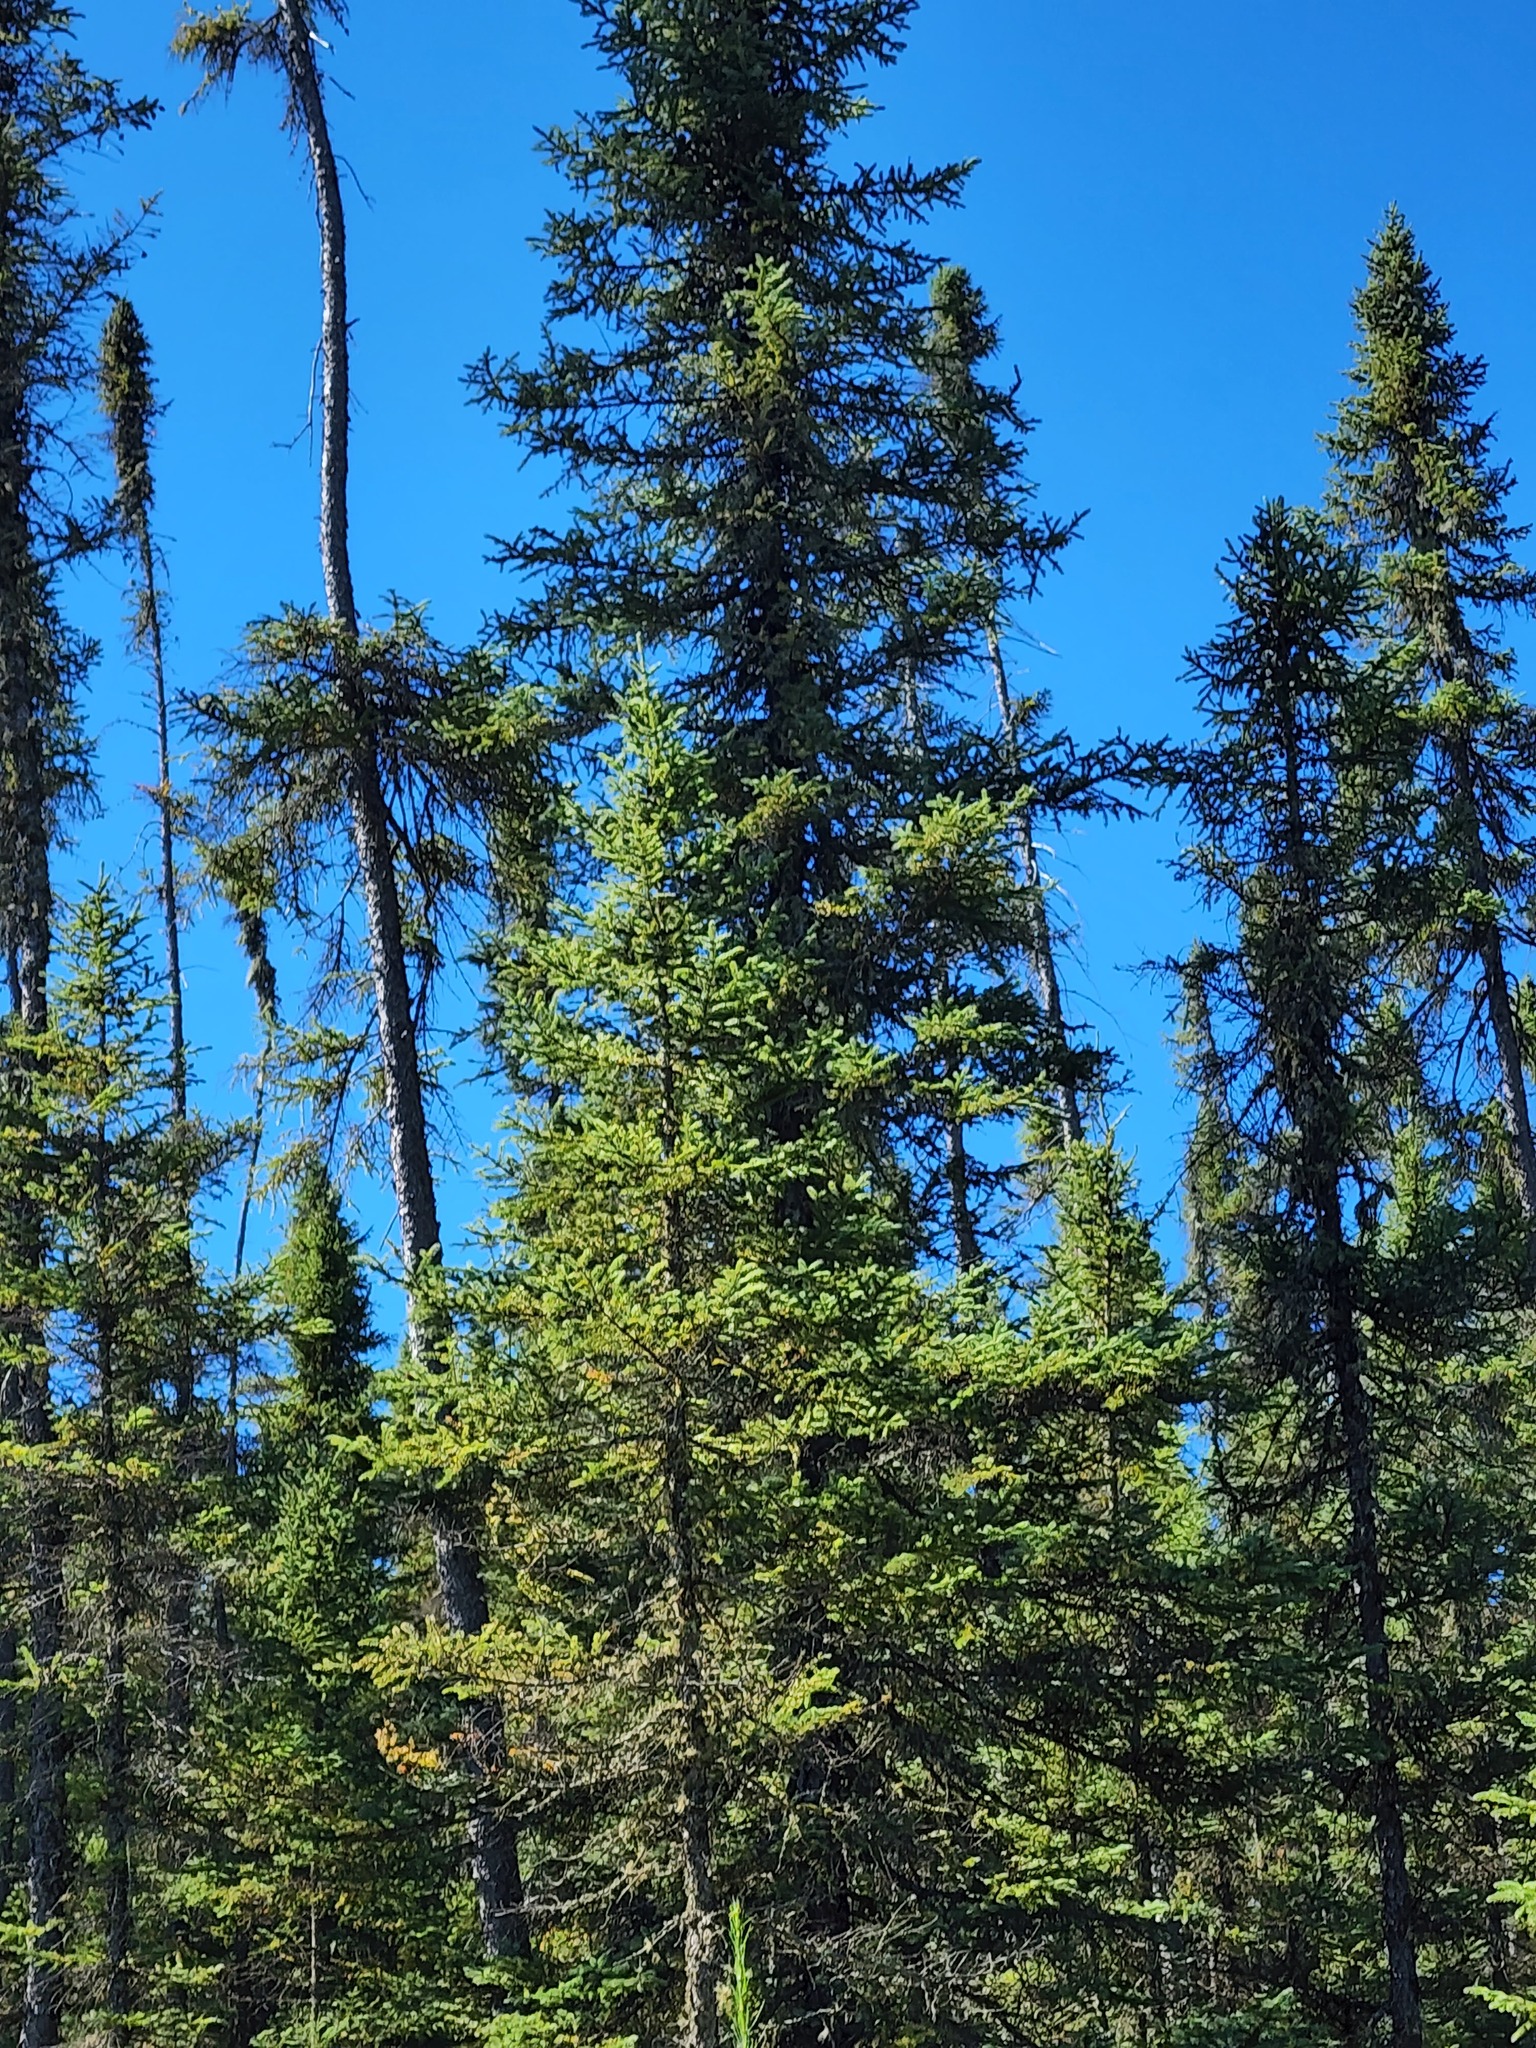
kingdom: Plantae
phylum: Tracheophyta
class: Pinopsida
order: Pinales
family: Pinaceae
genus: Picea
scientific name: Picea mariana
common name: Black spruce
